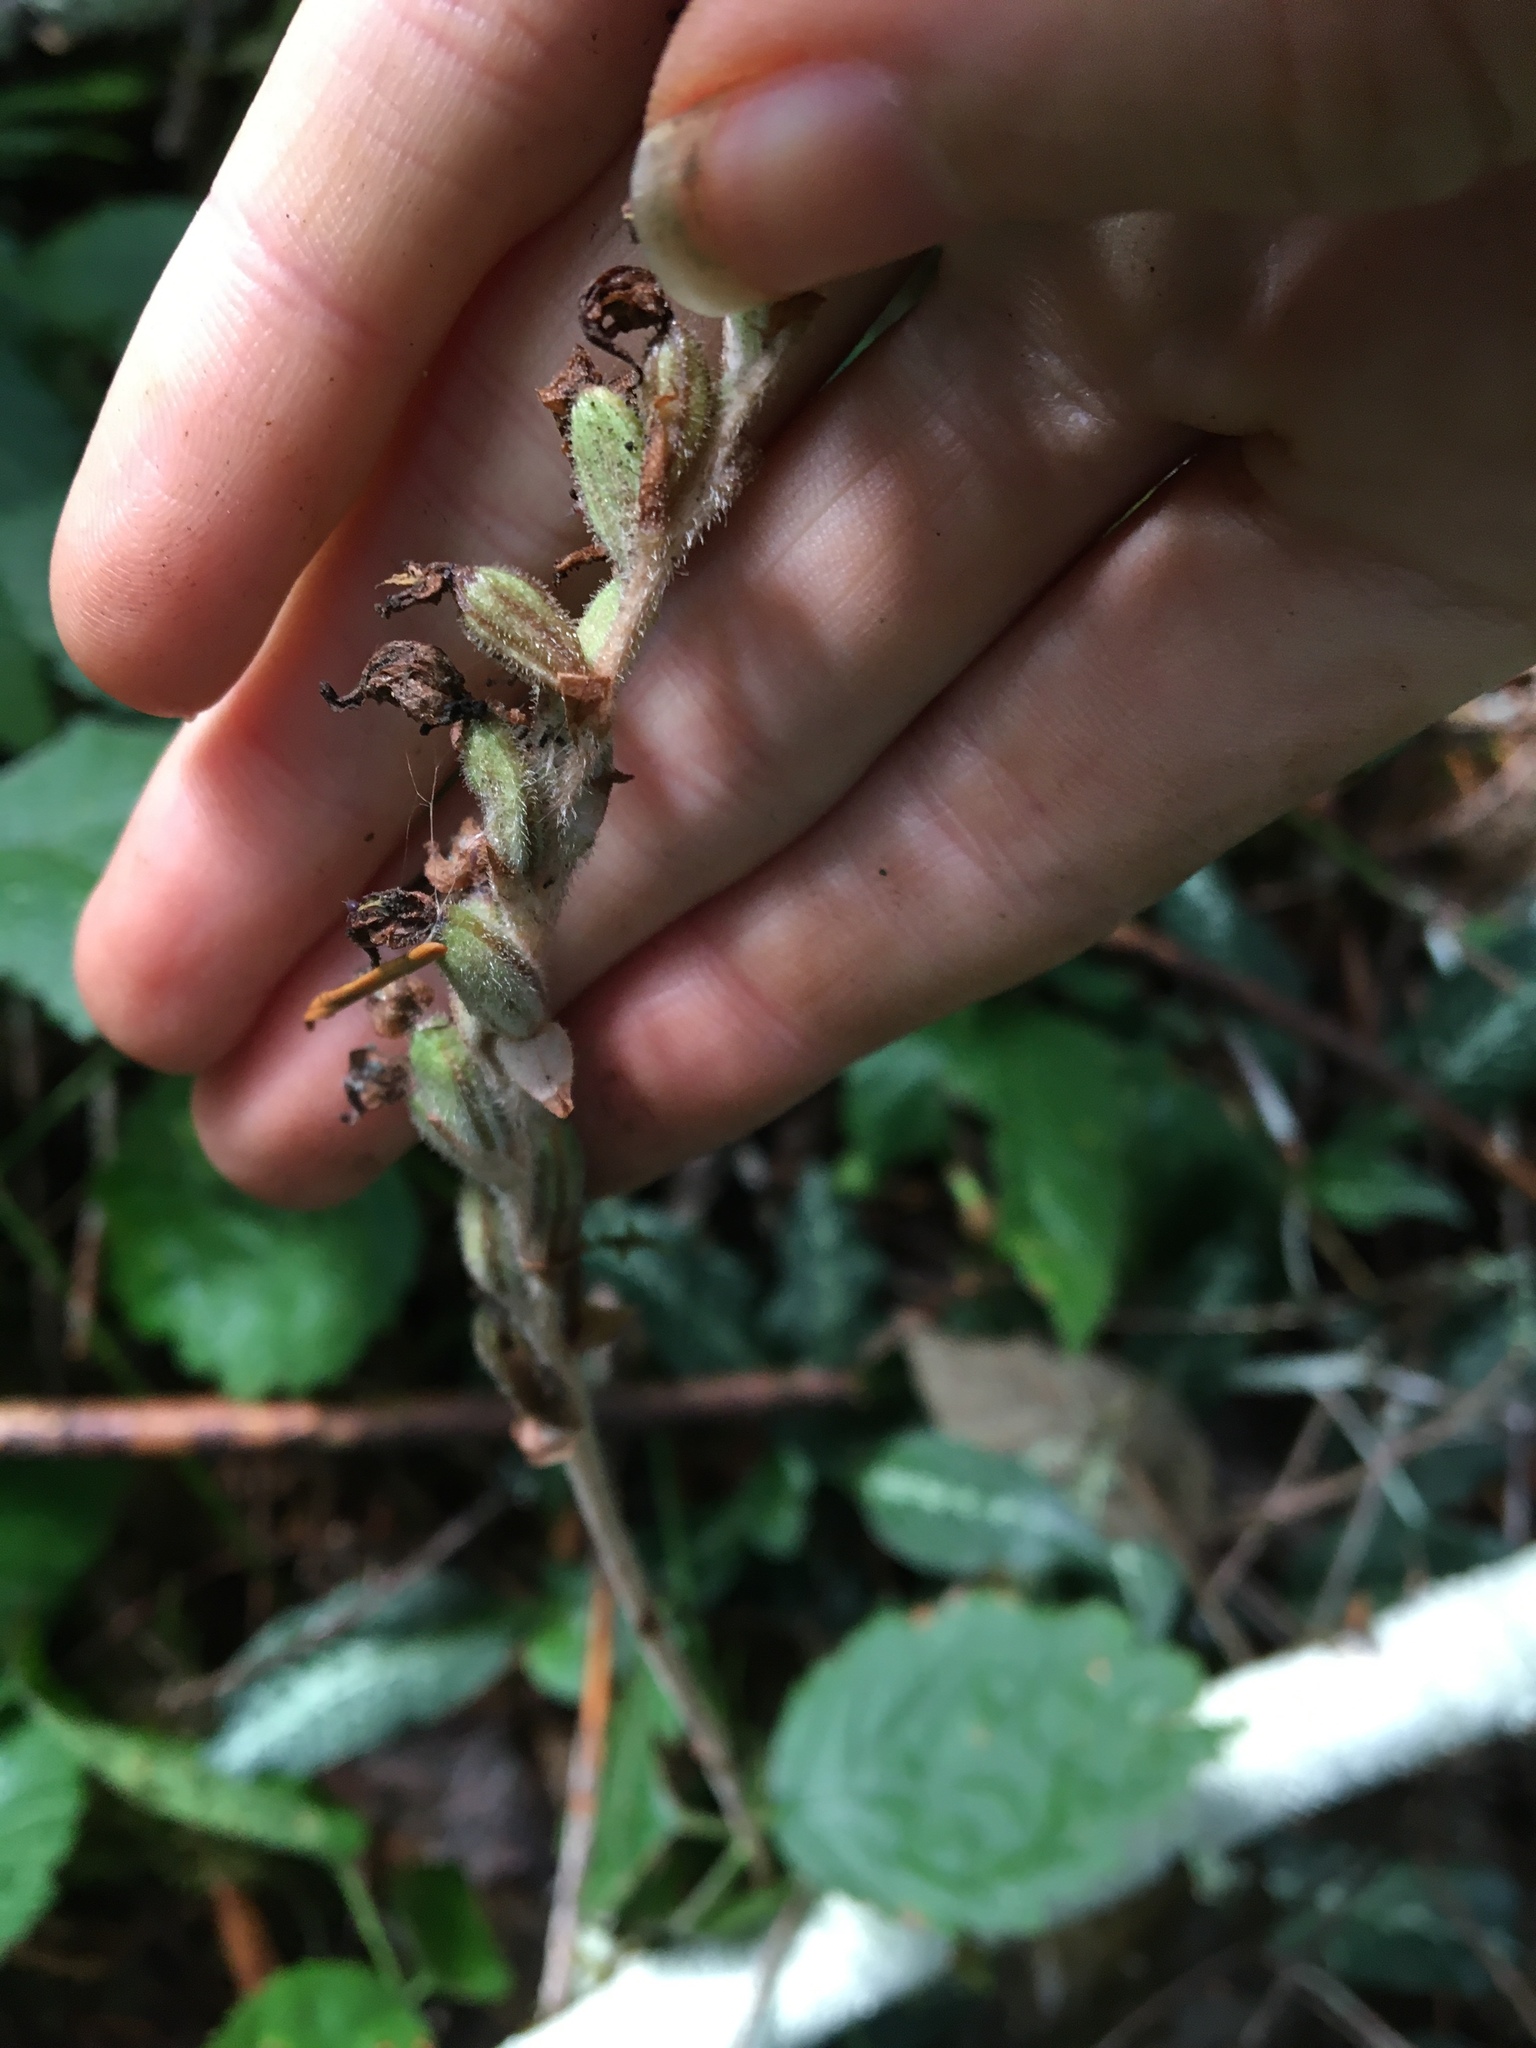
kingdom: Plantae
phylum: Tracheophyta
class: Liliopsida
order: Asparagales
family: Orchidaceae
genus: Goodyera
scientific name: Goodyera oblongifolia
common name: Giant rattlesnake-plantain
